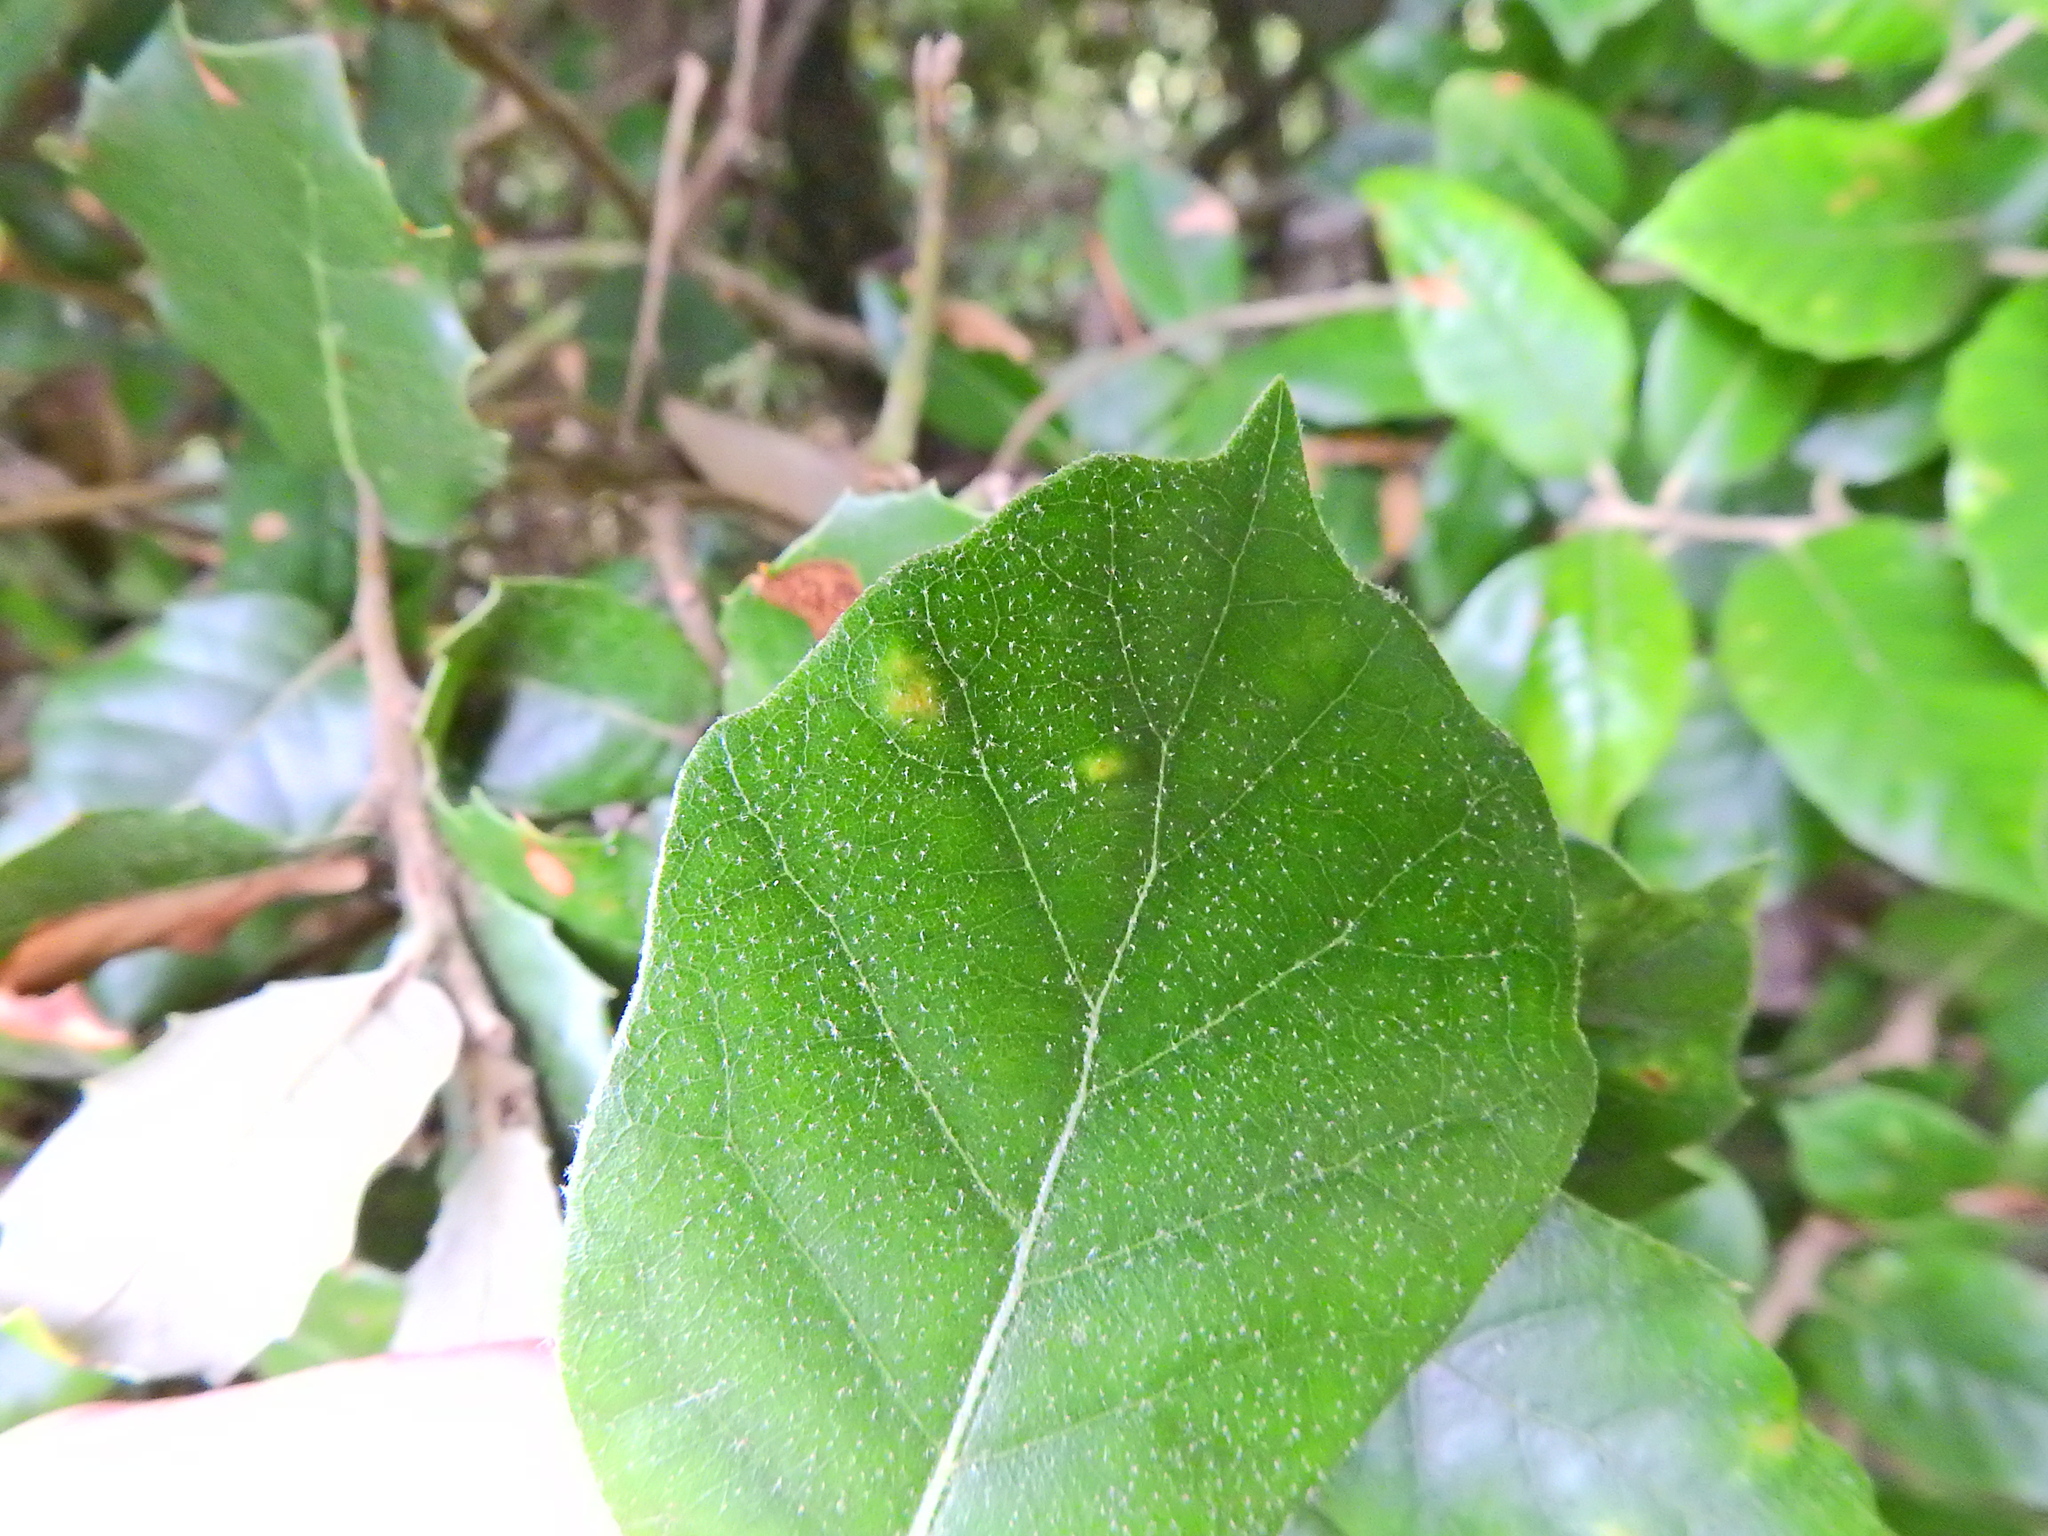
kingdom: Animalia
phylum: Arthropoda
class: Arachnida
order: Trombidiformes
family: Eriophyidae
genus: Aceria
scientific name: Aceria ilicis
